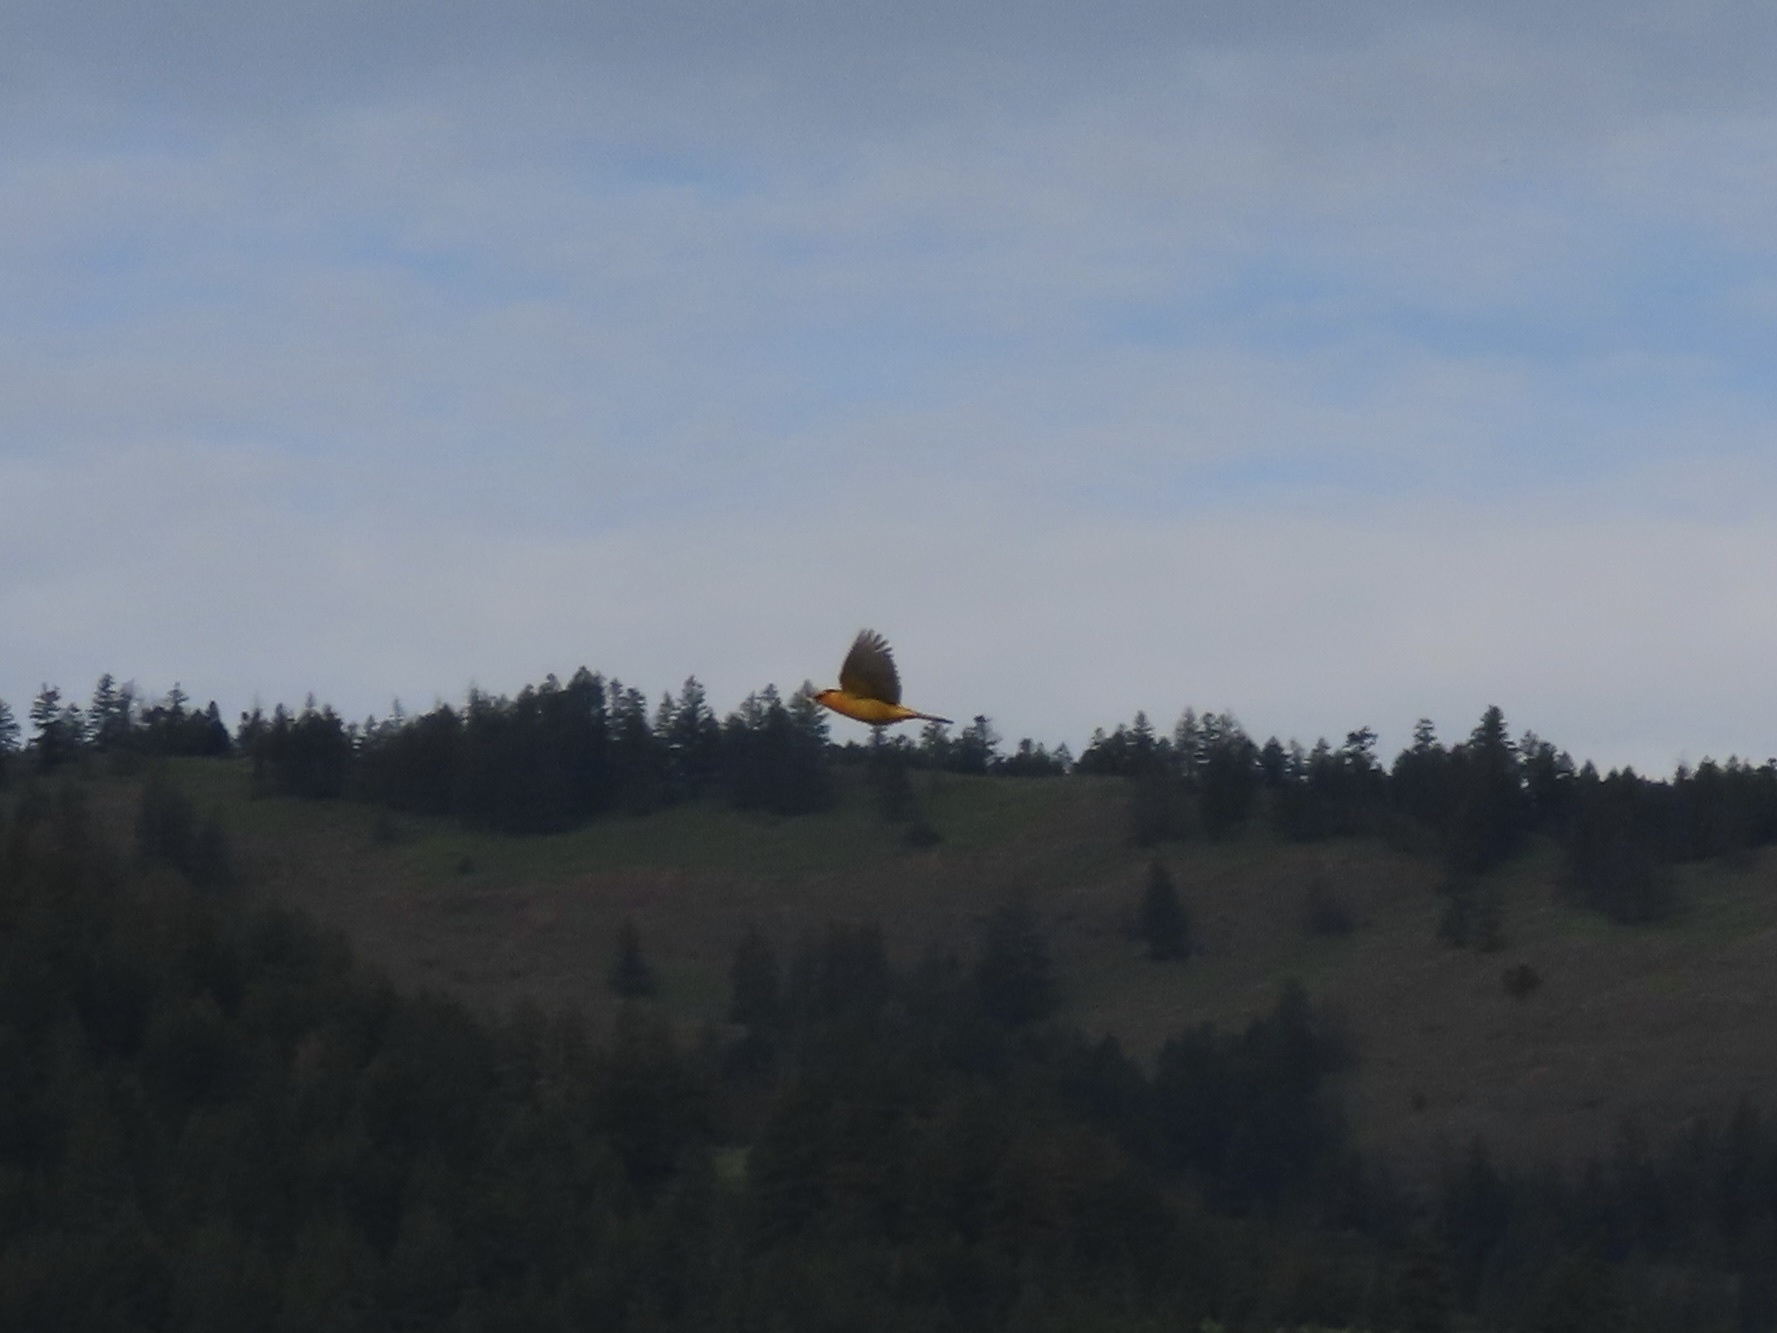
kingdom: Animalia
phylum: Chordata
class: Aves
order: Passeriformes
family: Icteridae
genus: Icterus
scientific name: Icterus bullockii
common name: Bullock's oriole
